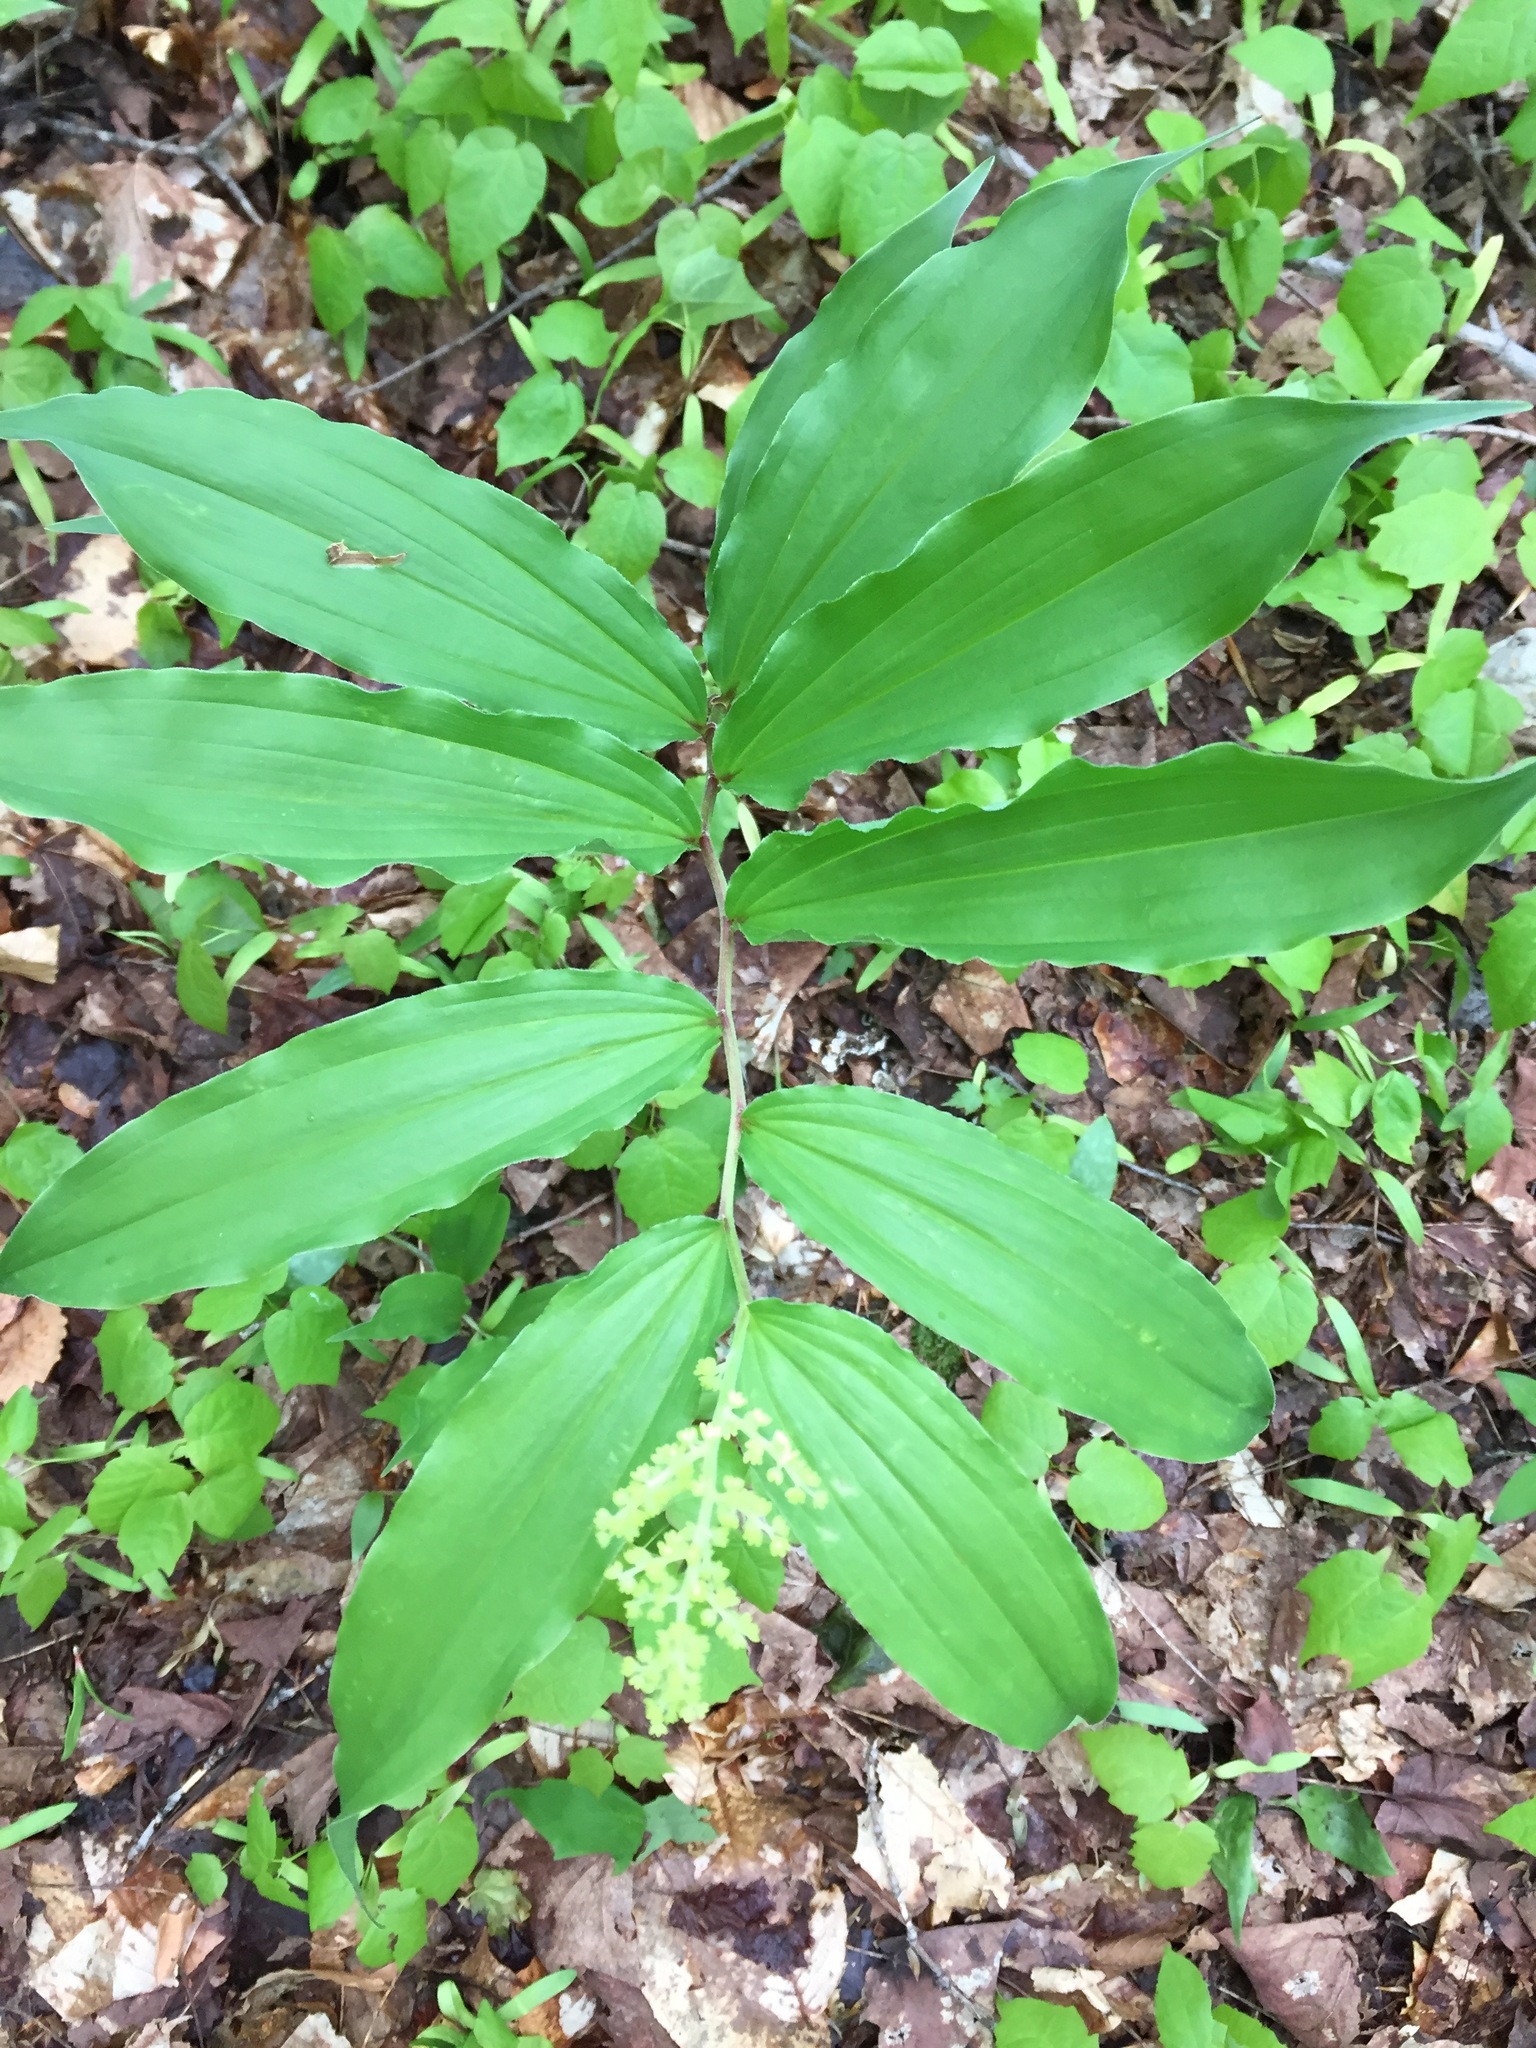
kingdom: Plantae
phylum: Tracheophyta
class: Liliopsida
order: Asparagales
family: Asparagaceae
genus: Maianthemum
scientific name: Maianthemum racemosum
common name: False spikenard
